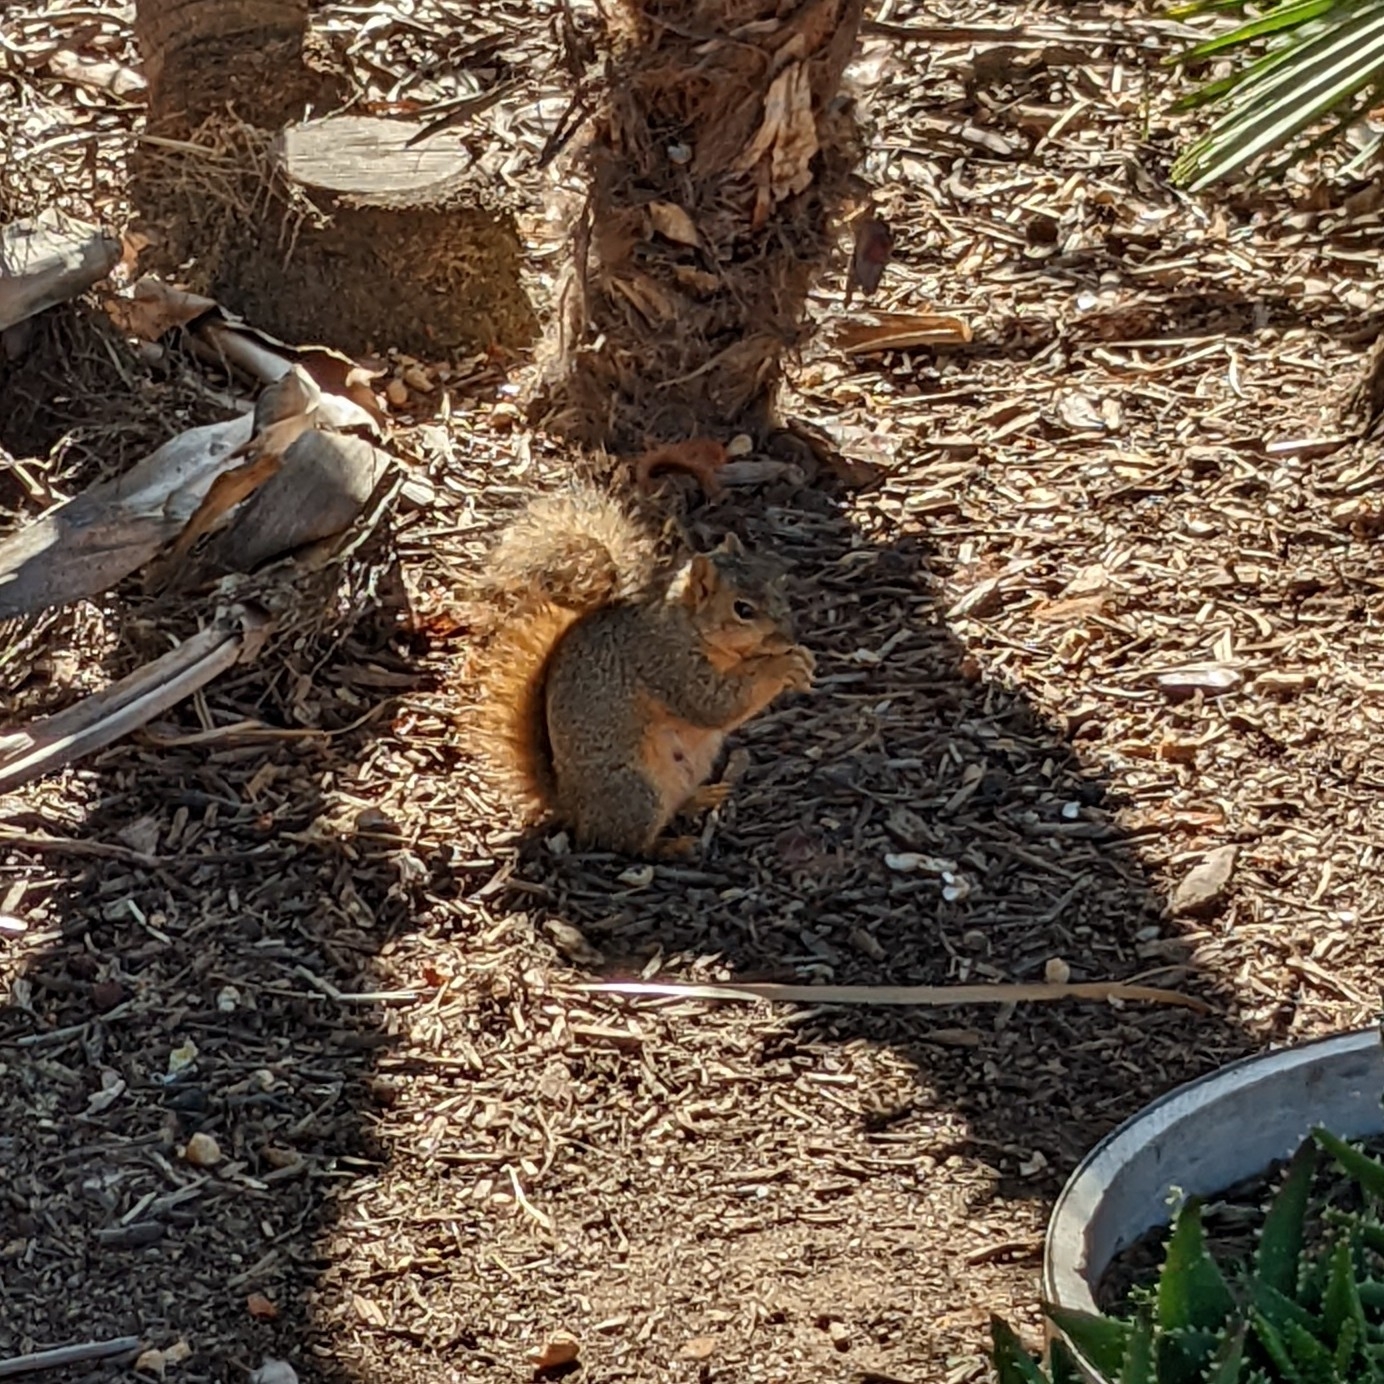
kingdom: Animalia
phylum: Chordata
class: Mammalia
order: Rodentia
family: Sciuridae
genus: Sciurus
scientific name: Sciurus niger
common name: Fox squirrel
